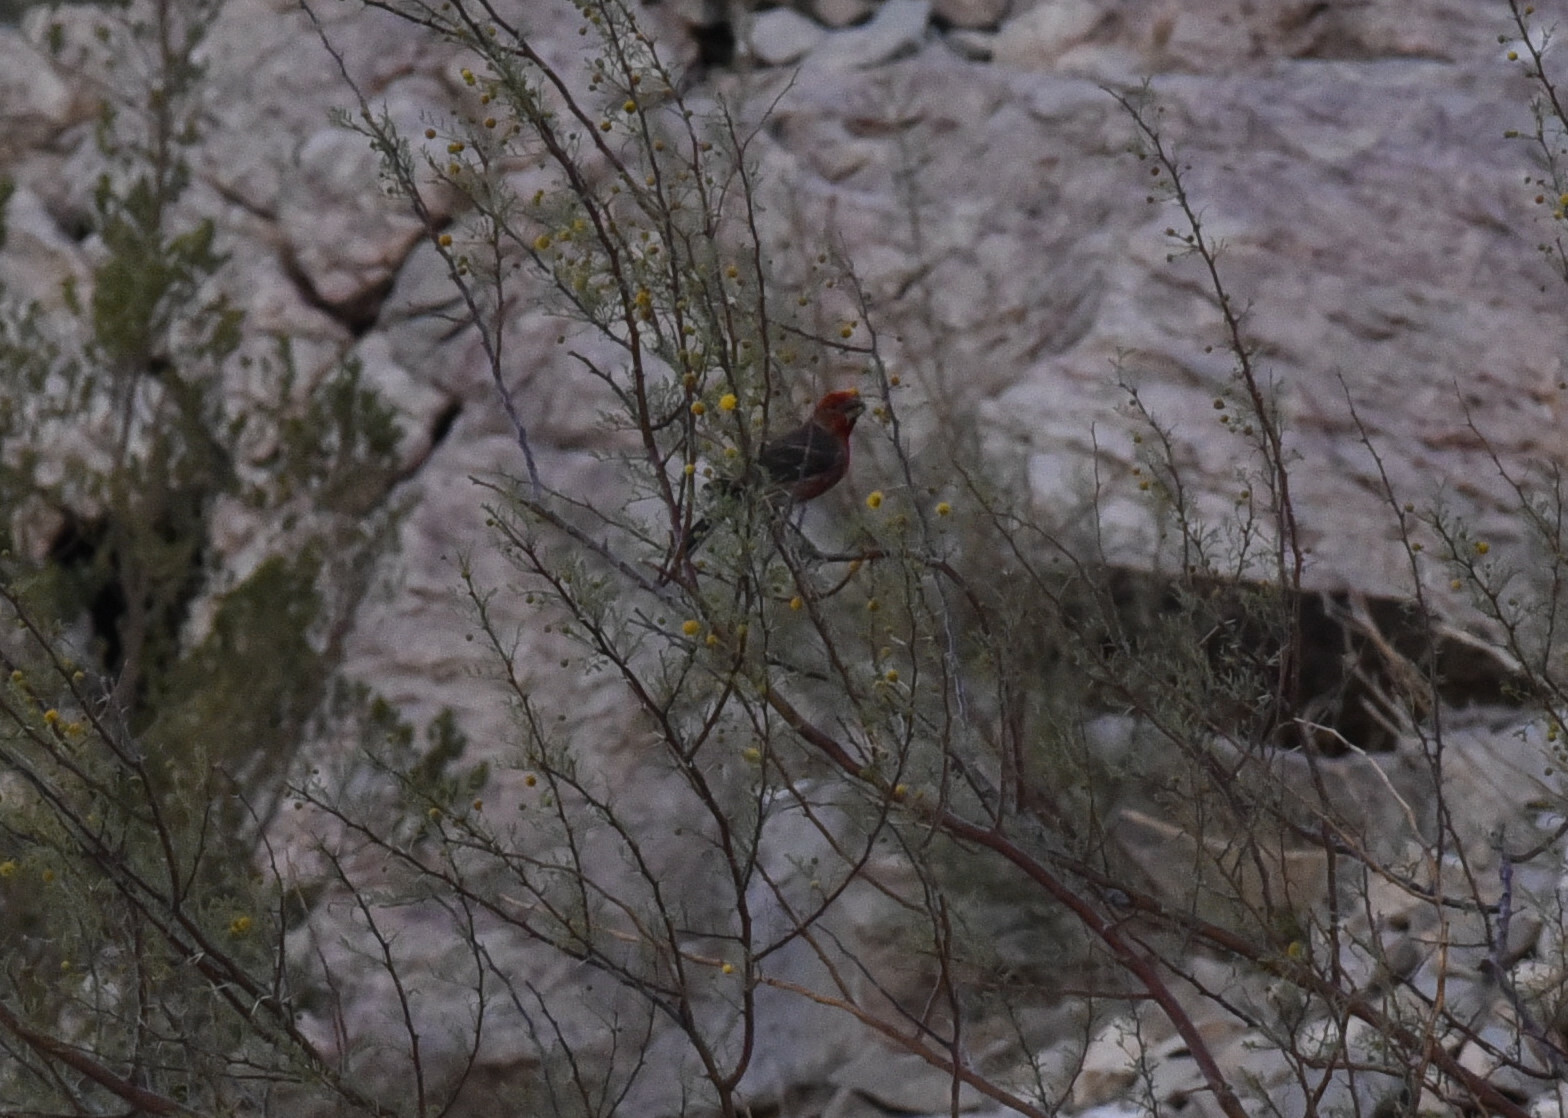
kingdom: Animalia
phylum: Chordata
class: Aves
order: Passeriformes
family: Fringillidae
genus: Haemorhous
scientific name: Haemorhous mexicanus
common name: House finch
